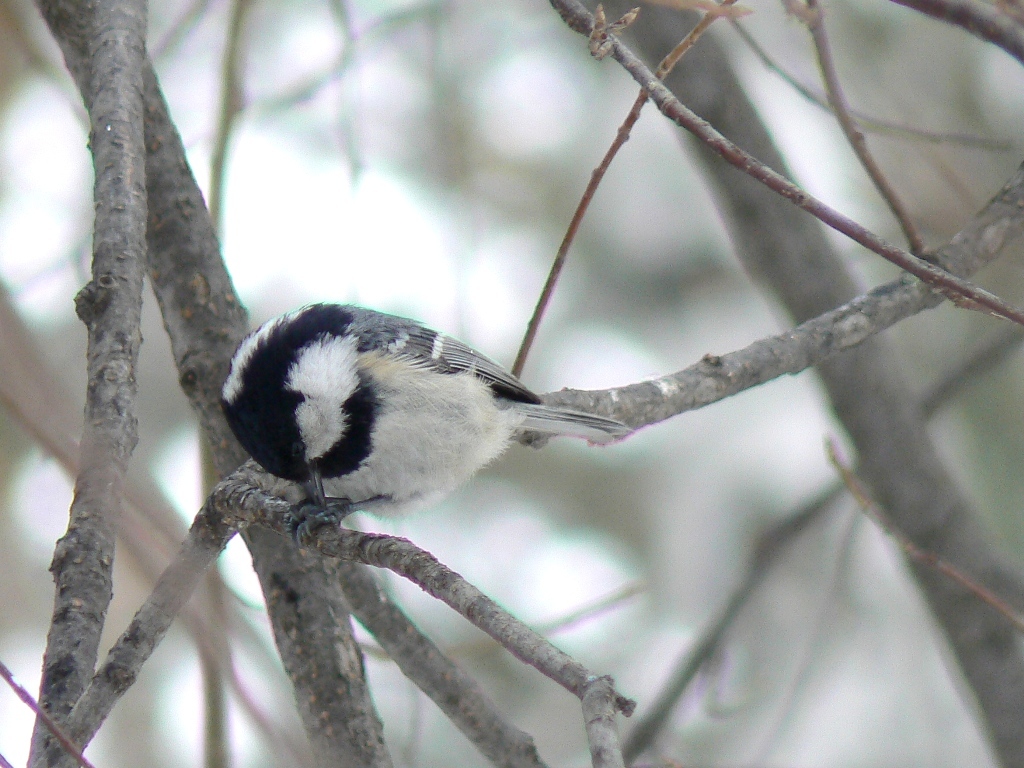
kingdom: Animalia
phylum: Chordata
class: Aves
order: Passeriformes
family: Paridae
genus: Periparus
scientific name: Periparus ater
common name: Coal tit
